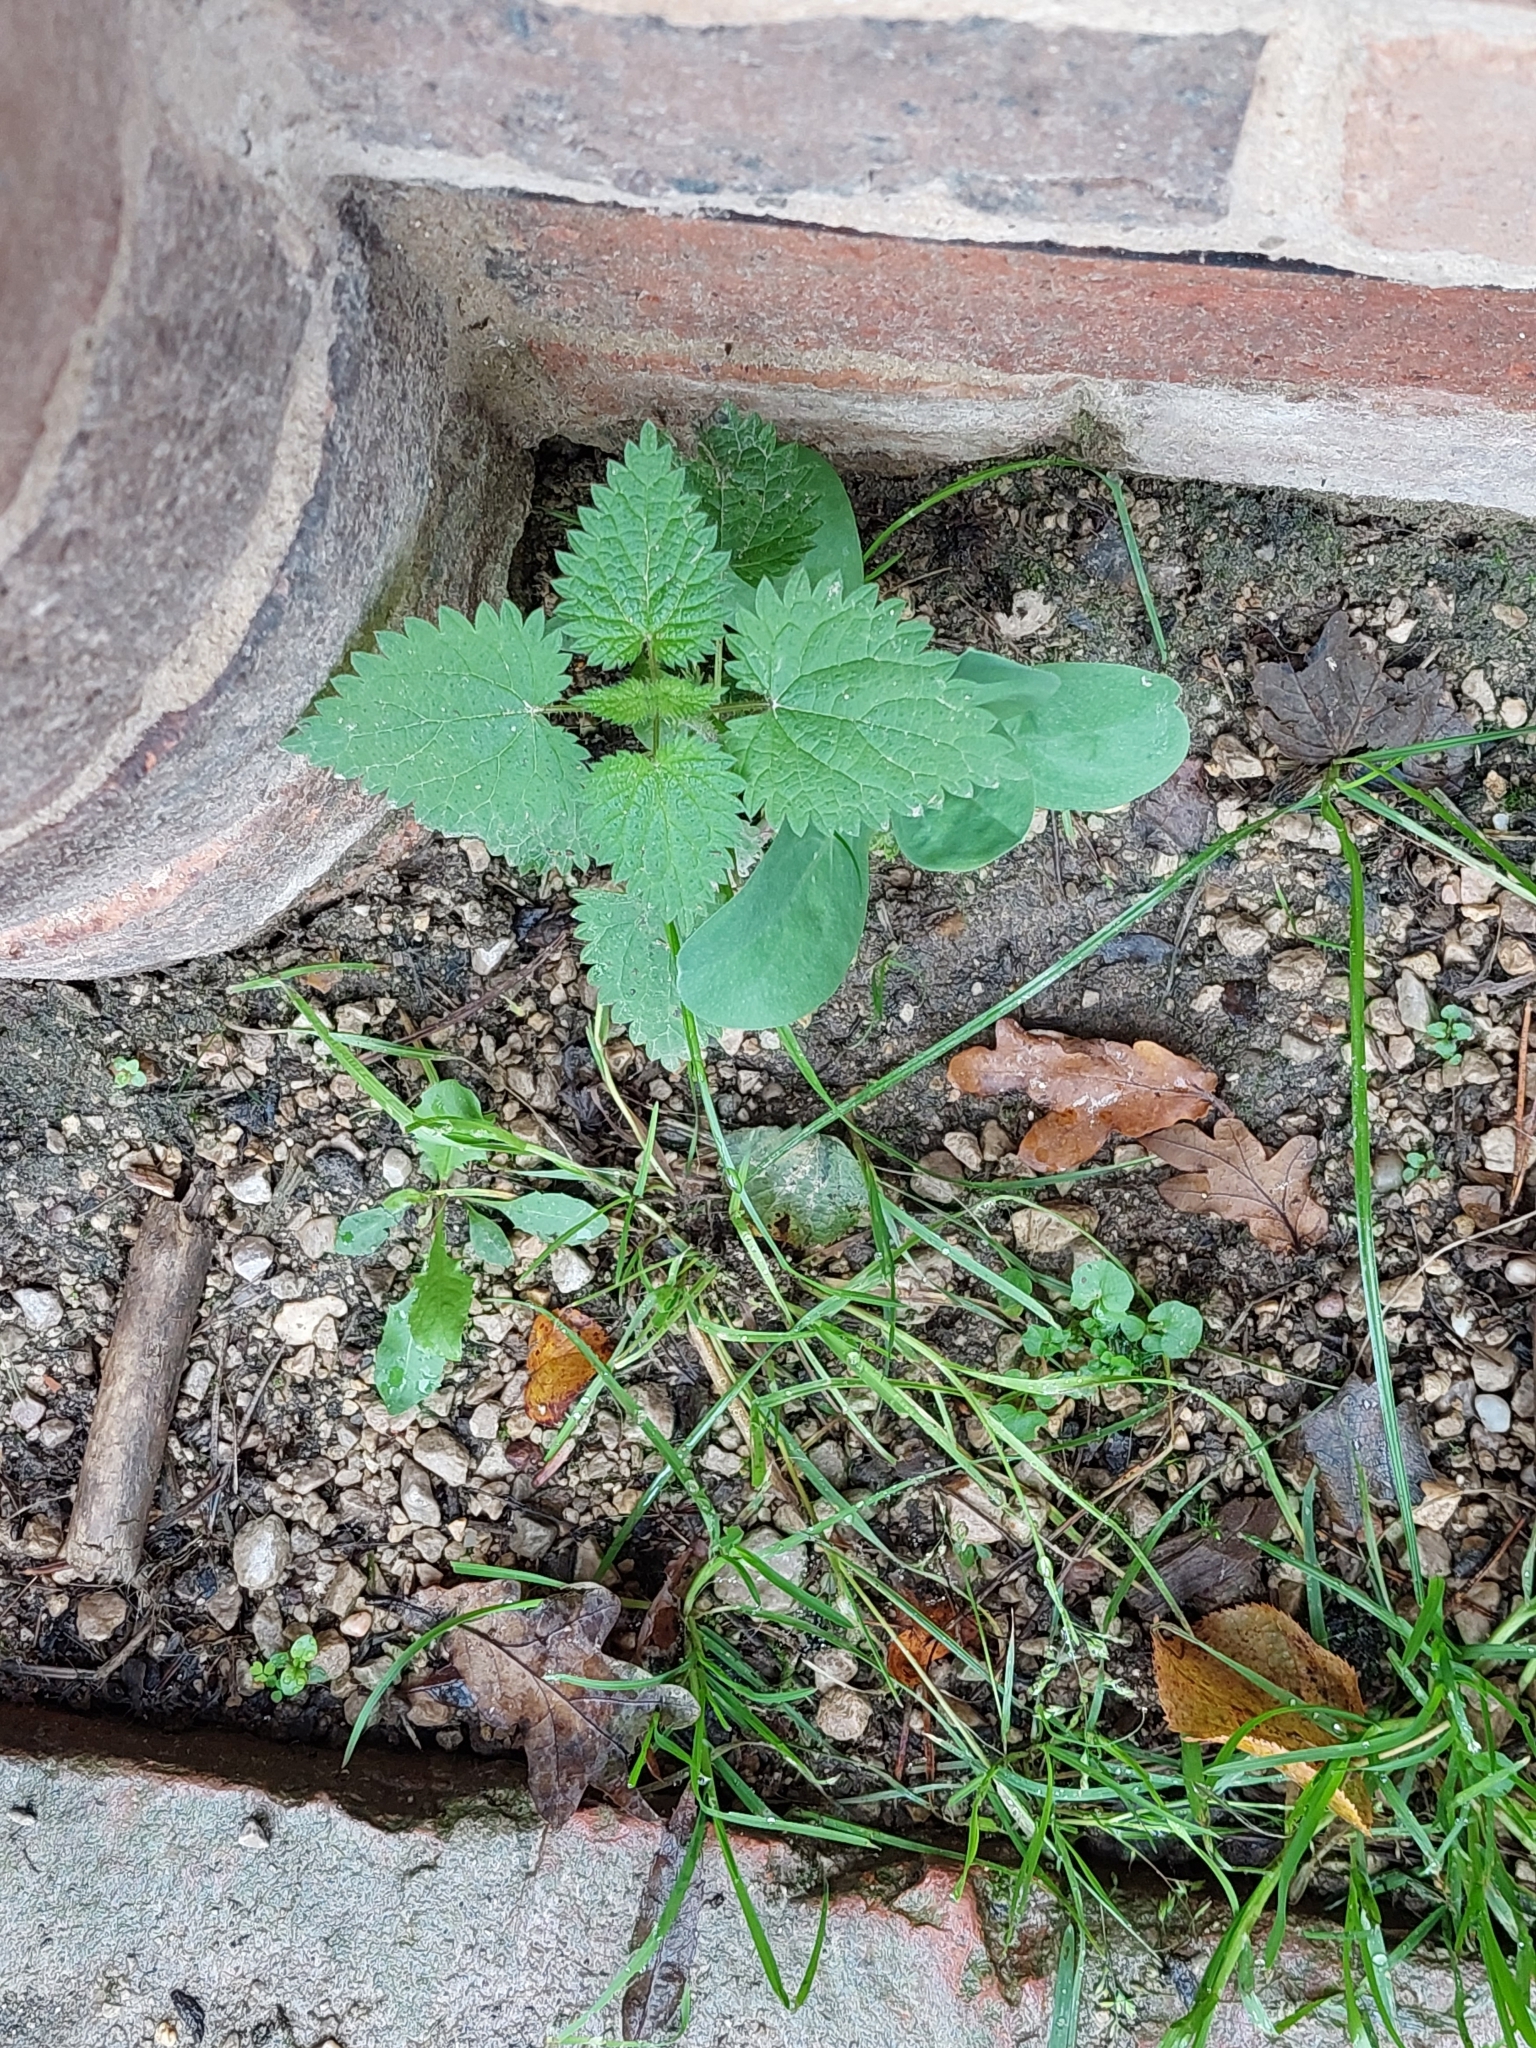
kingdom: Plantae
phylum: Tracheophyta
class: Magnoliopsida
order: Rosales
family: Urticaceae
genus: Urtica
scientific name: Urtica dioica
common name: Common nettle
